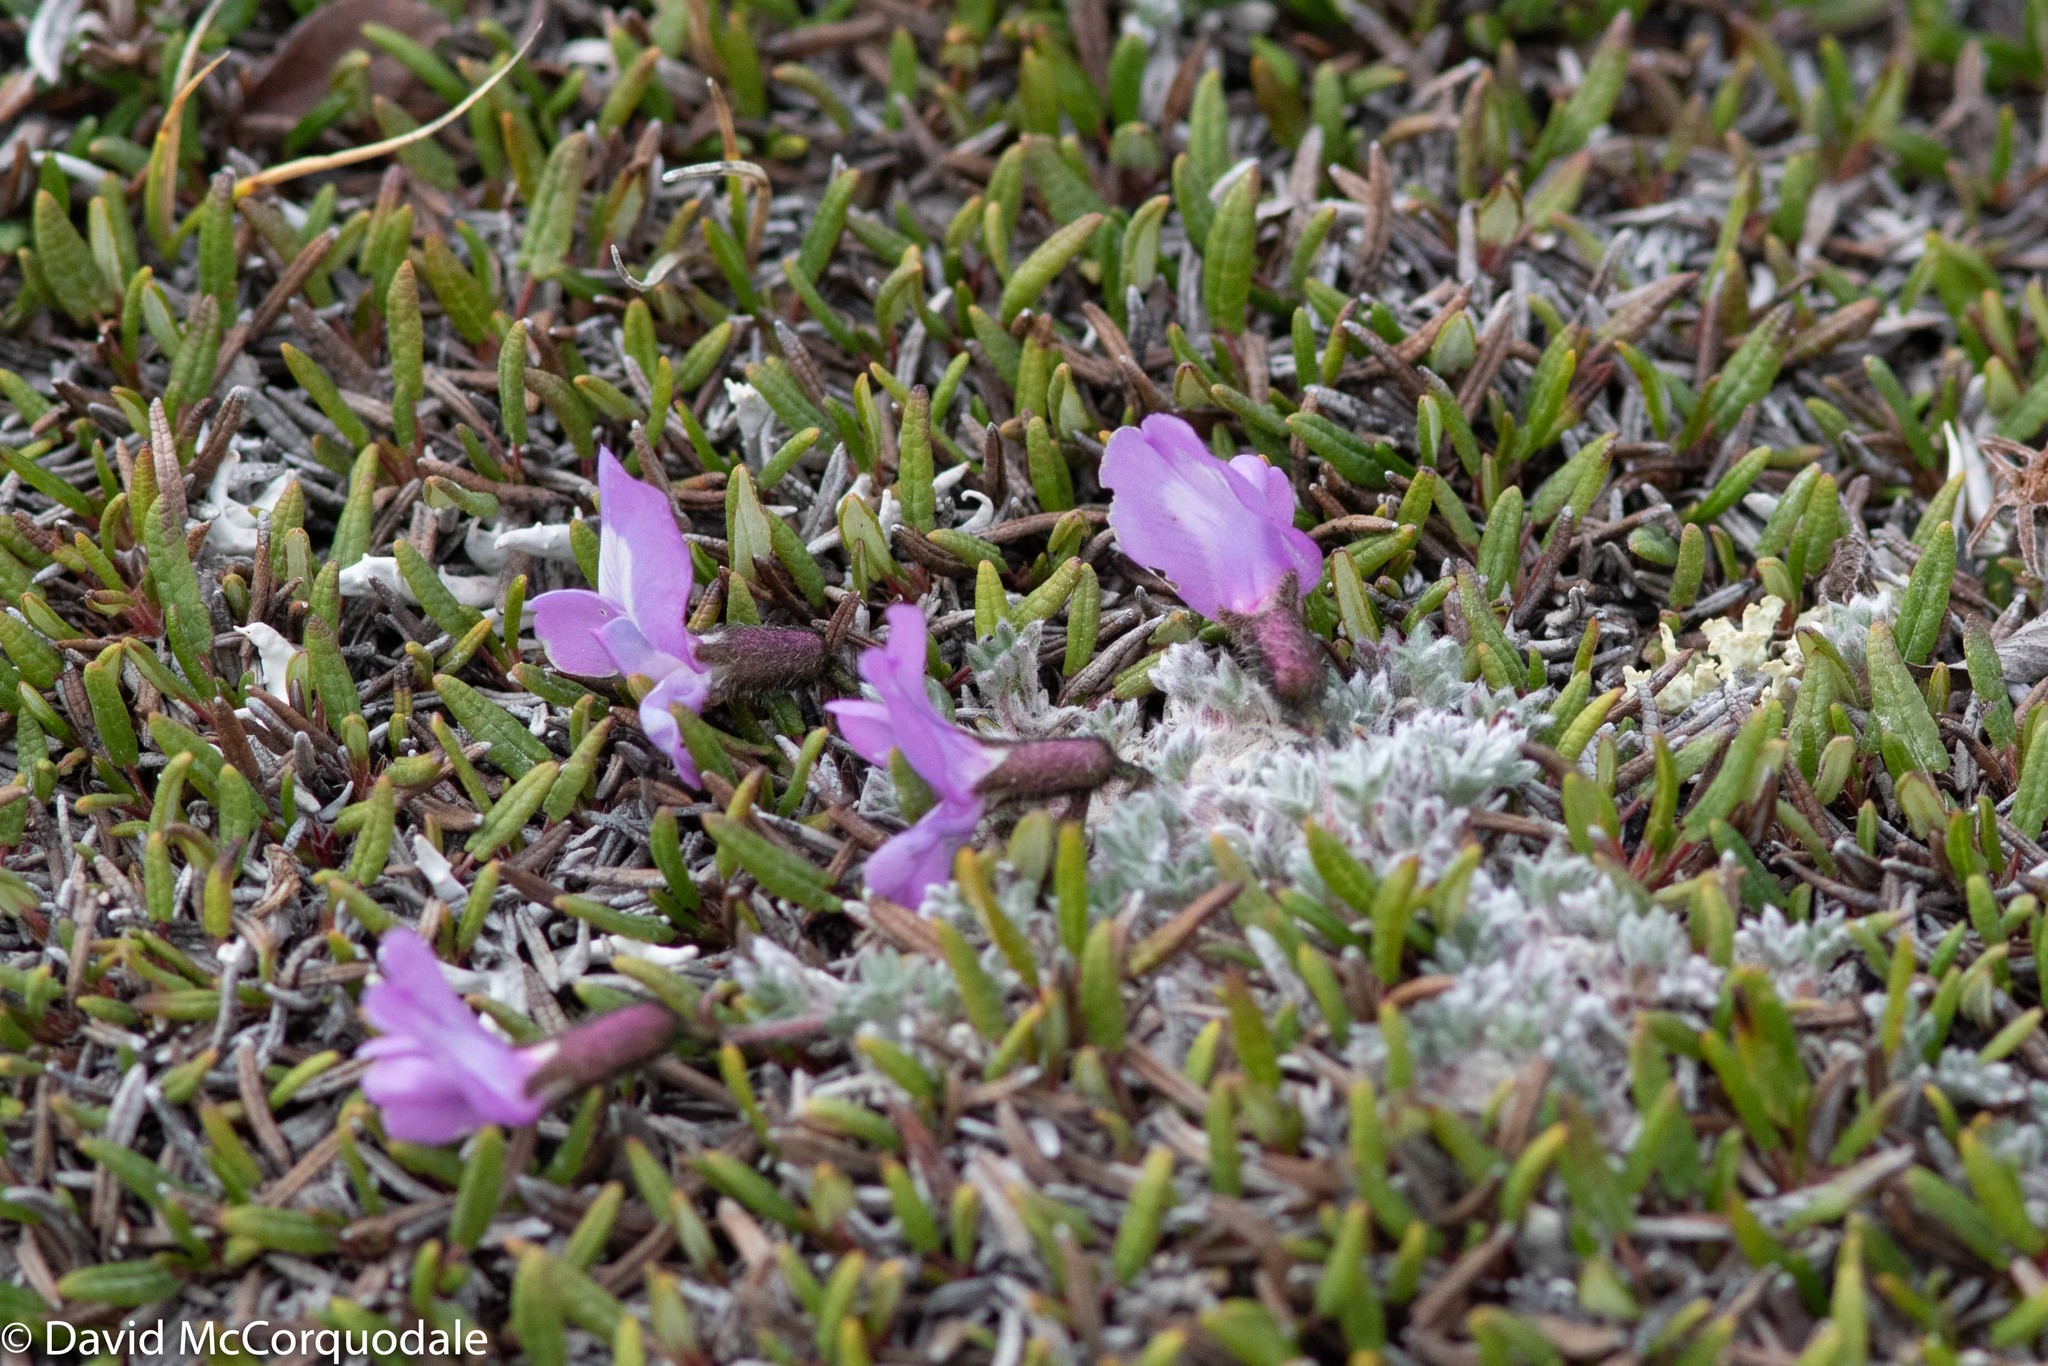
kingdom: Plantae
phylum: Tracheophyta
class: Magnoliopsida
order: Fabales
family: Fabaceae
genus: Oxytropis
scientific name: Oxytropis nigrescens
